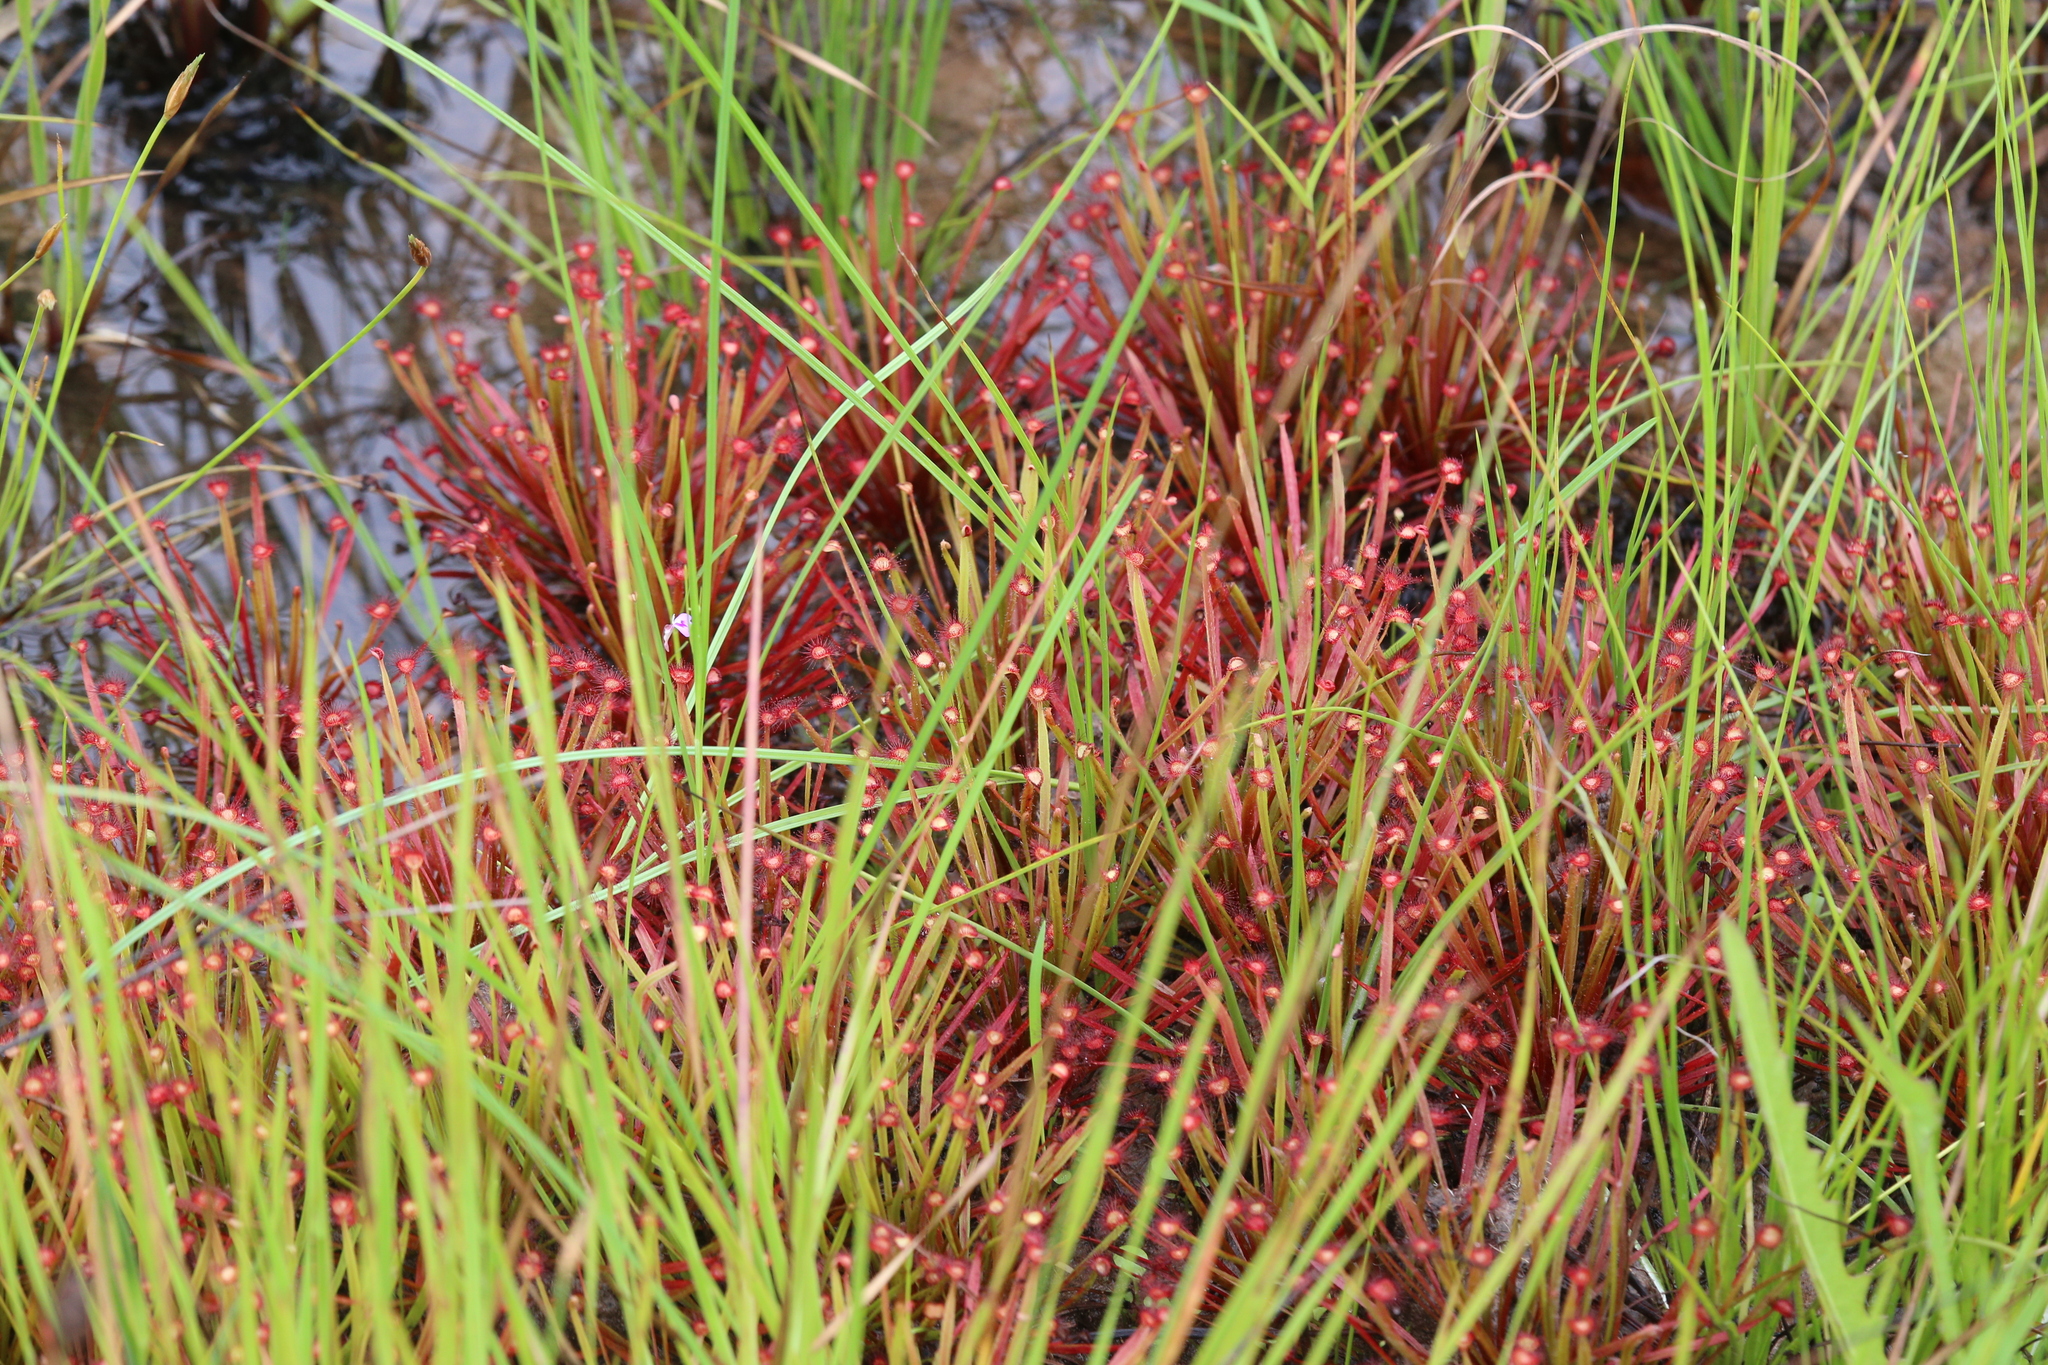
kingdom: Plantae
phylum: Tracheophyta
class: Magnoliopsida
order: Caryophyllales
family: Droseraceae
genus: Drosera
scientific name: Drosera dilatatopetiolaris
